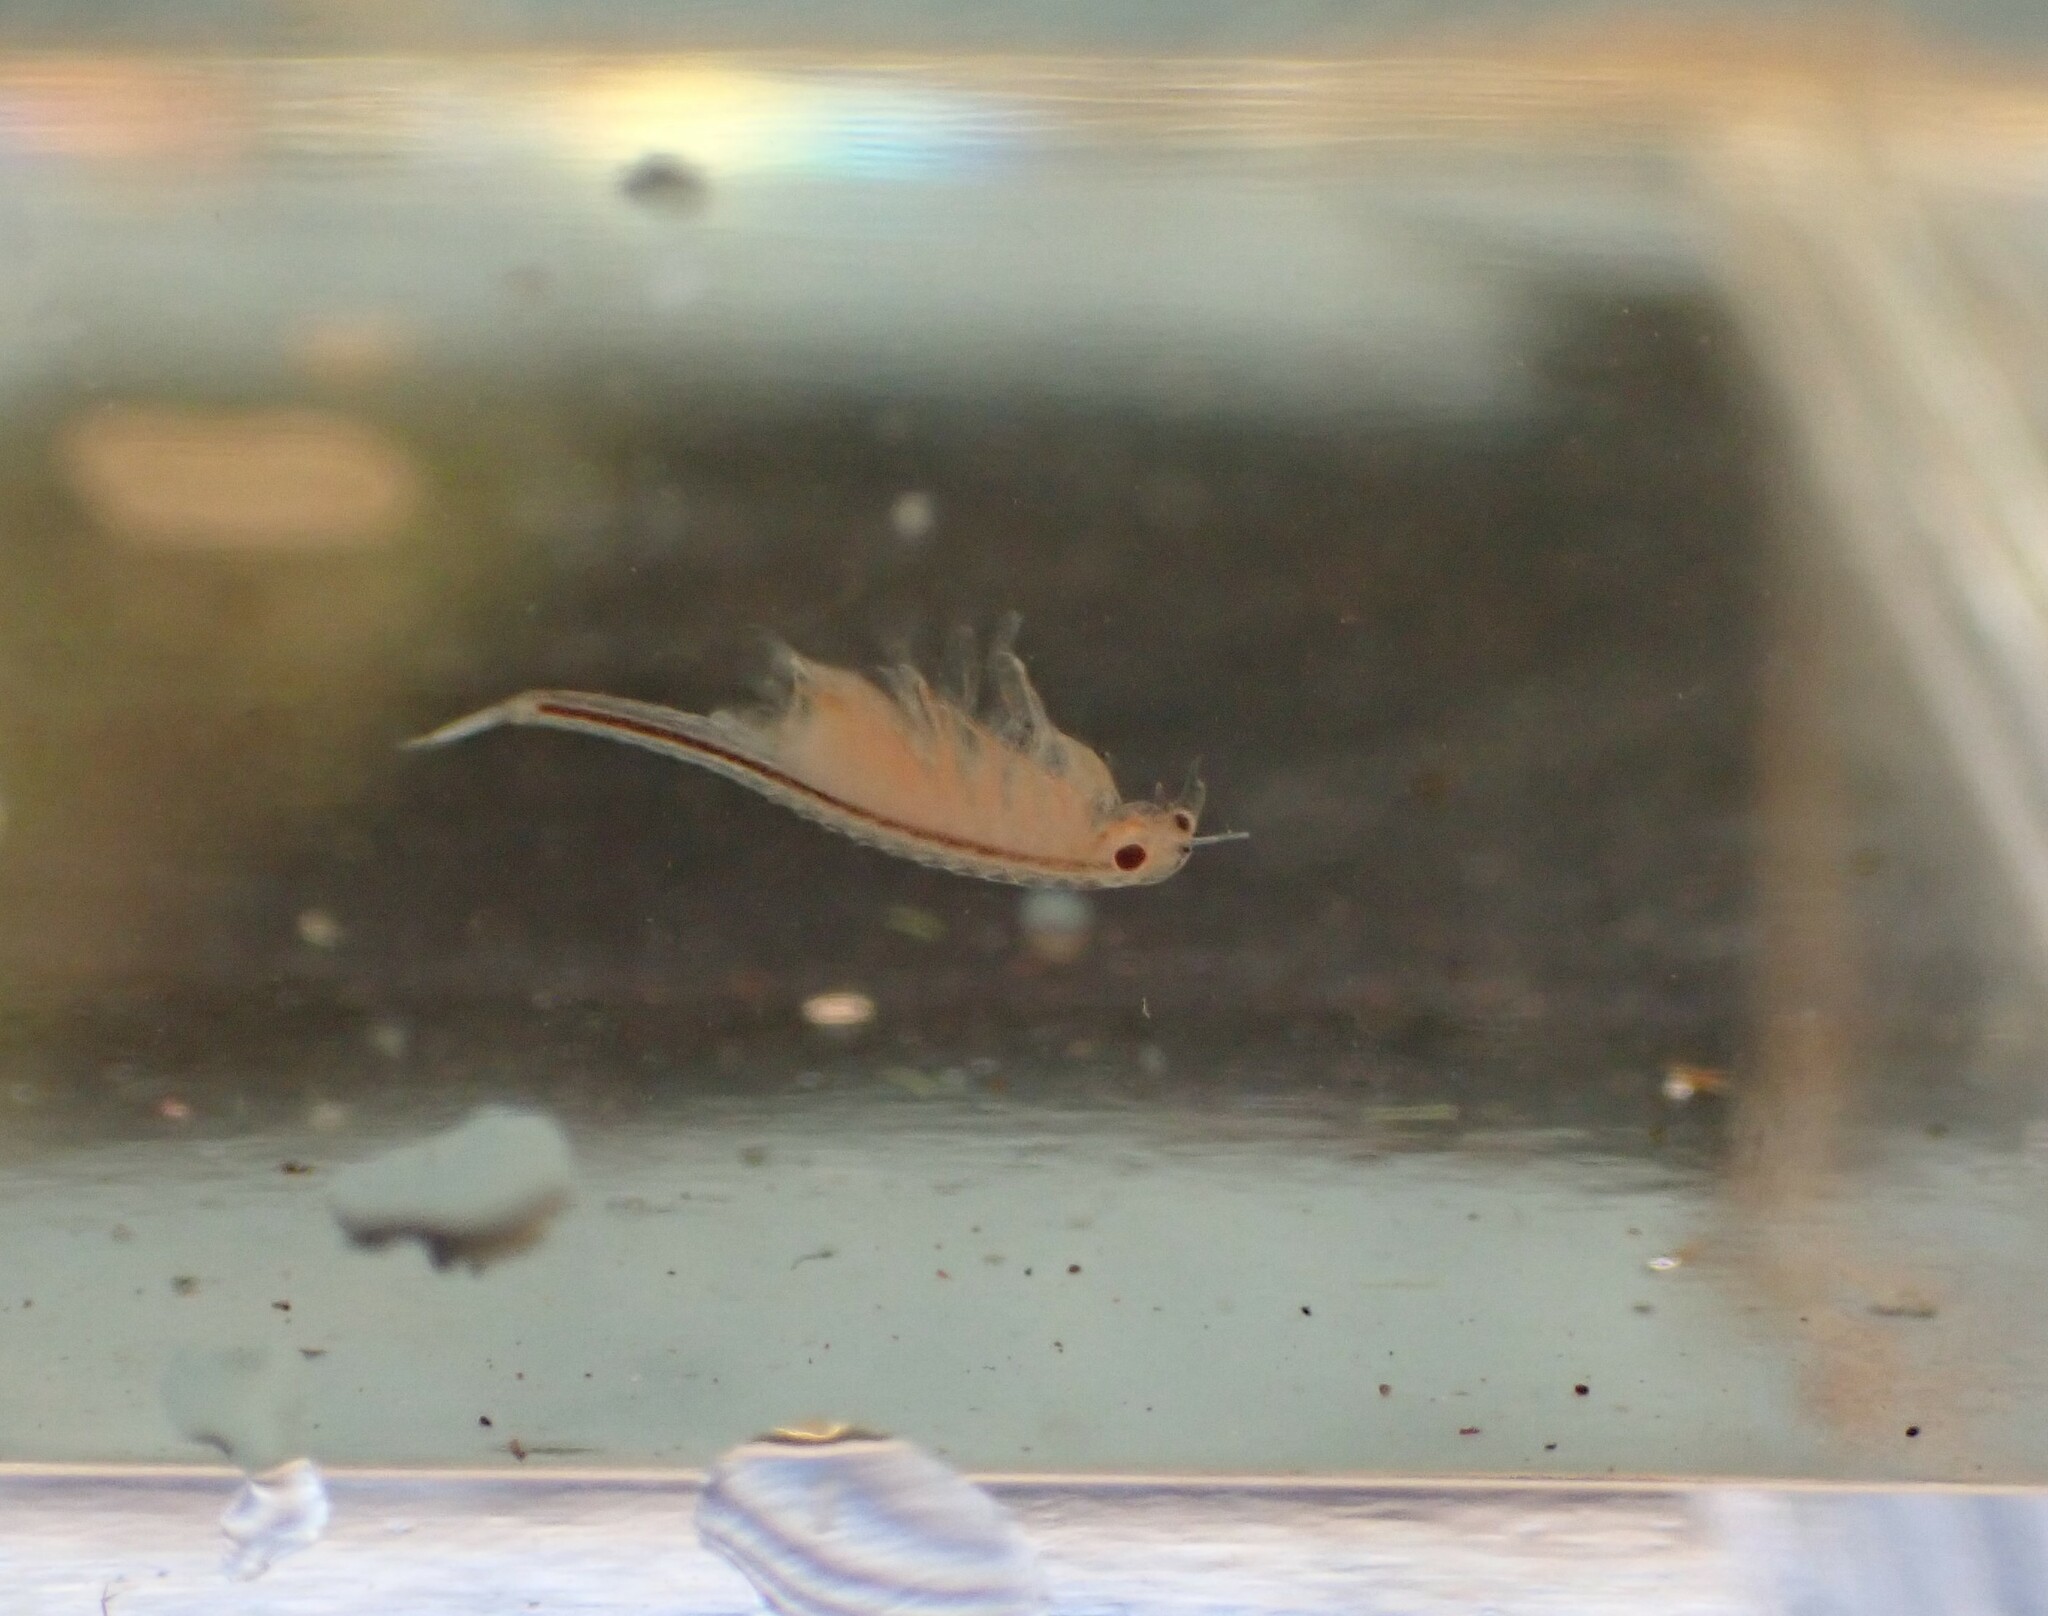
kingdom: Animalia
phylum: Arthropoda
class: Branchiopoda
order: Anostraca
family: Chirocephalidae
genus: Eubranchipus
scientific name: Eubranchipus oregonus
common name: Oregon fairy shrimp
